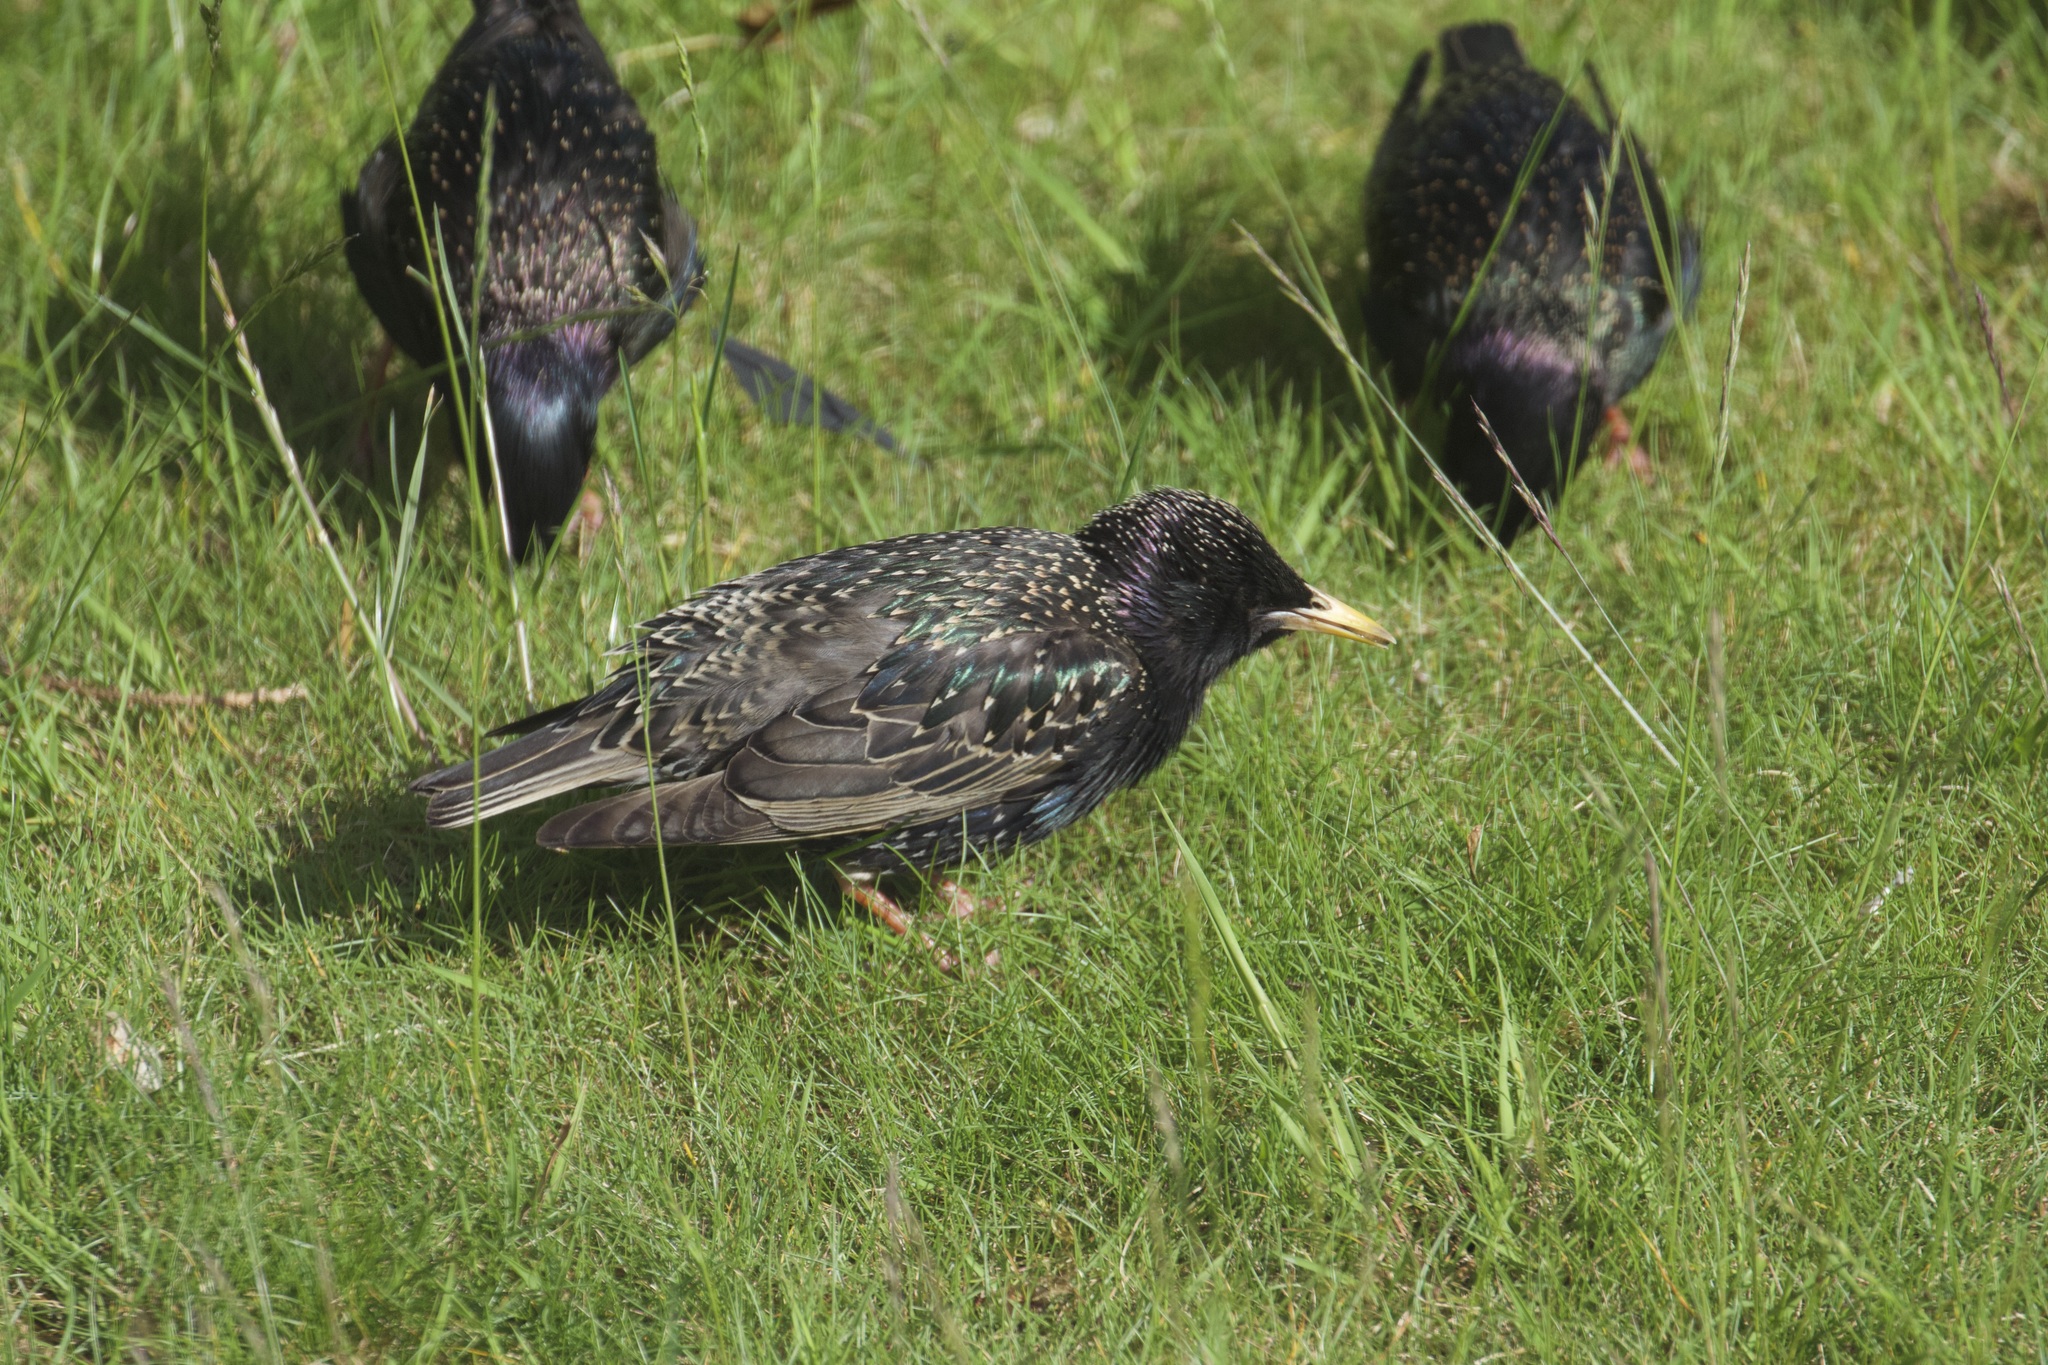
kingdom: Animalia
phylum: Chordata
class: Aves
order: Passeriformes
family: Sturnidae
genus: Sturnus
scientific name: Sturnus vulgaris
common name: Common starling
